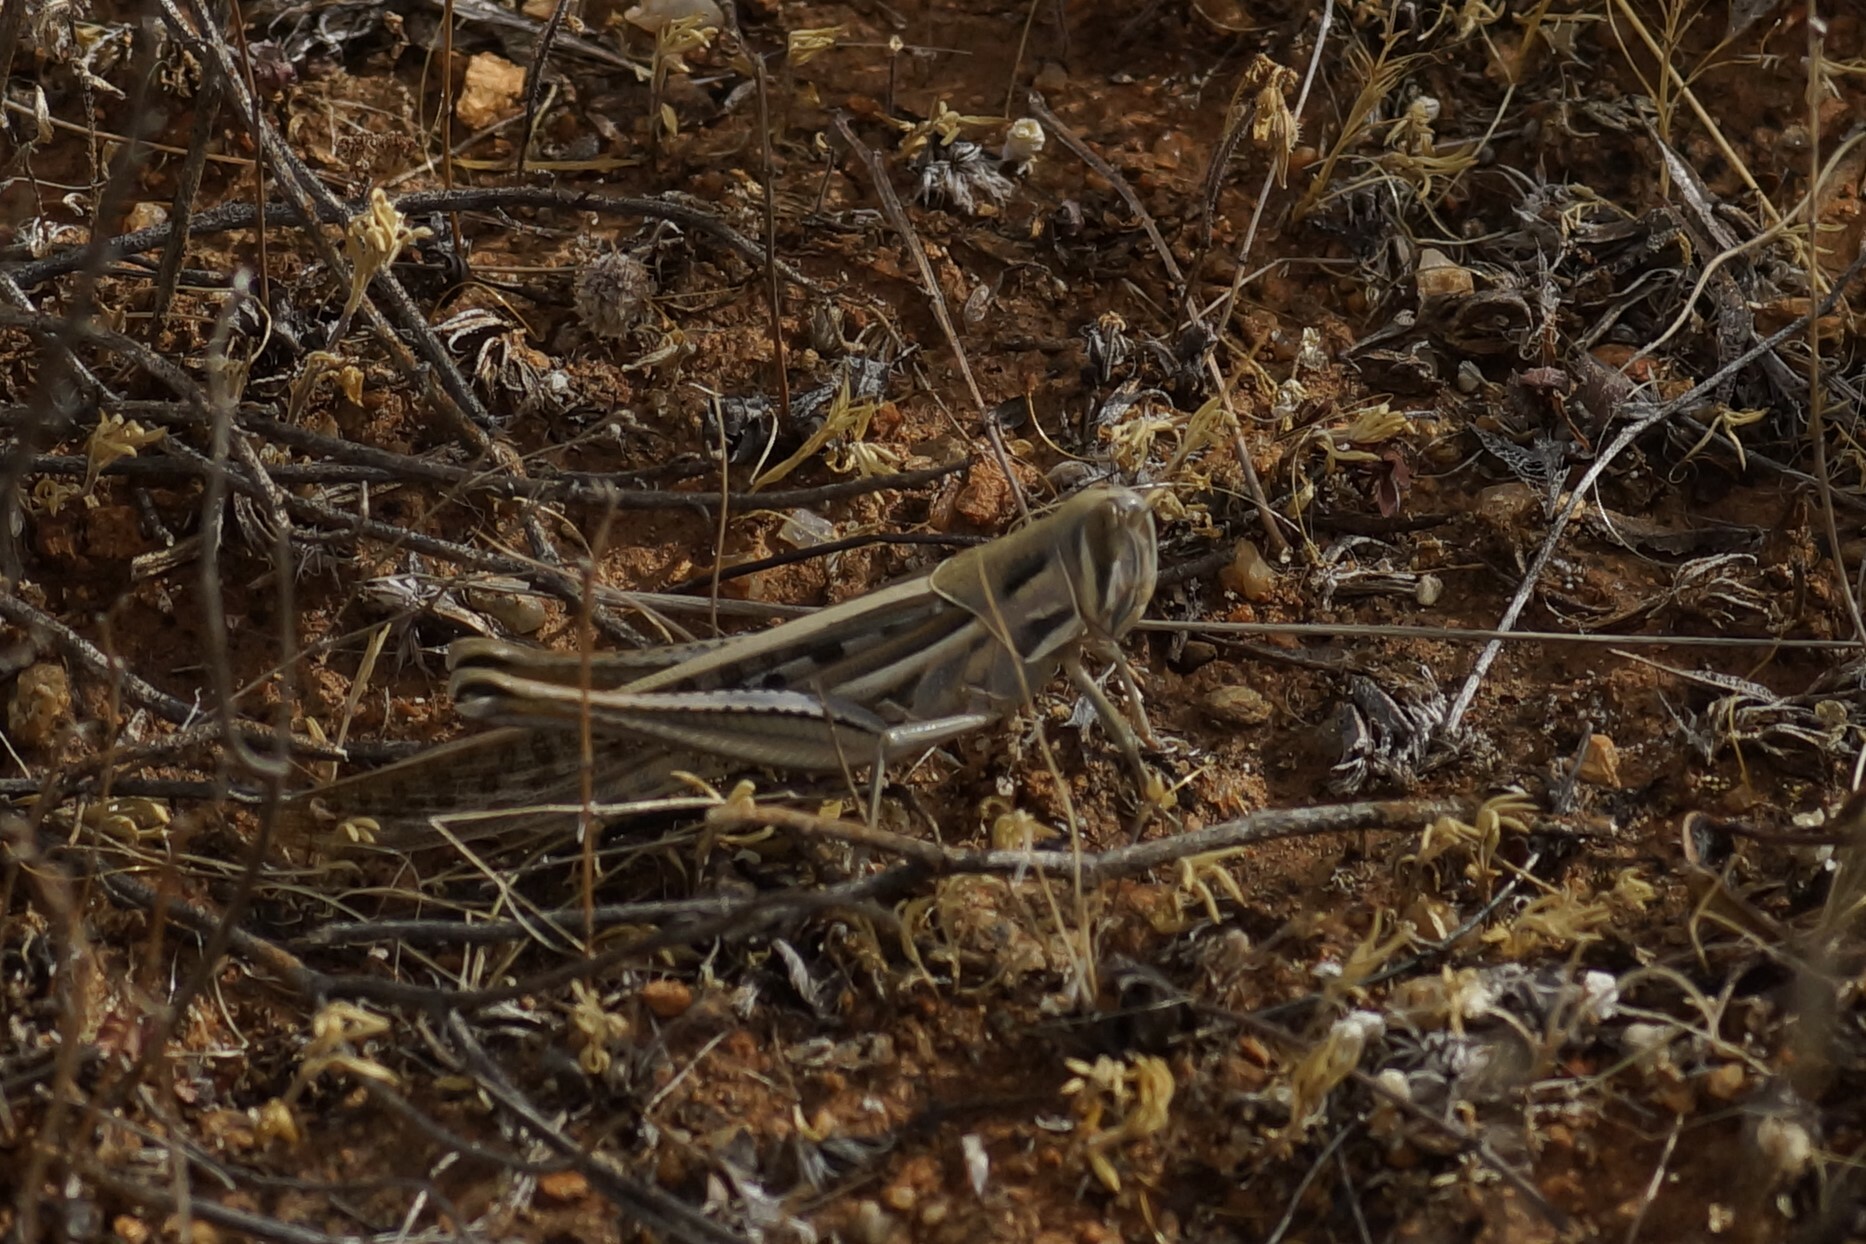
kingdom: Animalia
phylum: Arthropoda
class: Insecta
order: Orthoptera
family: Acrididae
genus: Austracris
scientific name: Austracris guttulosa
